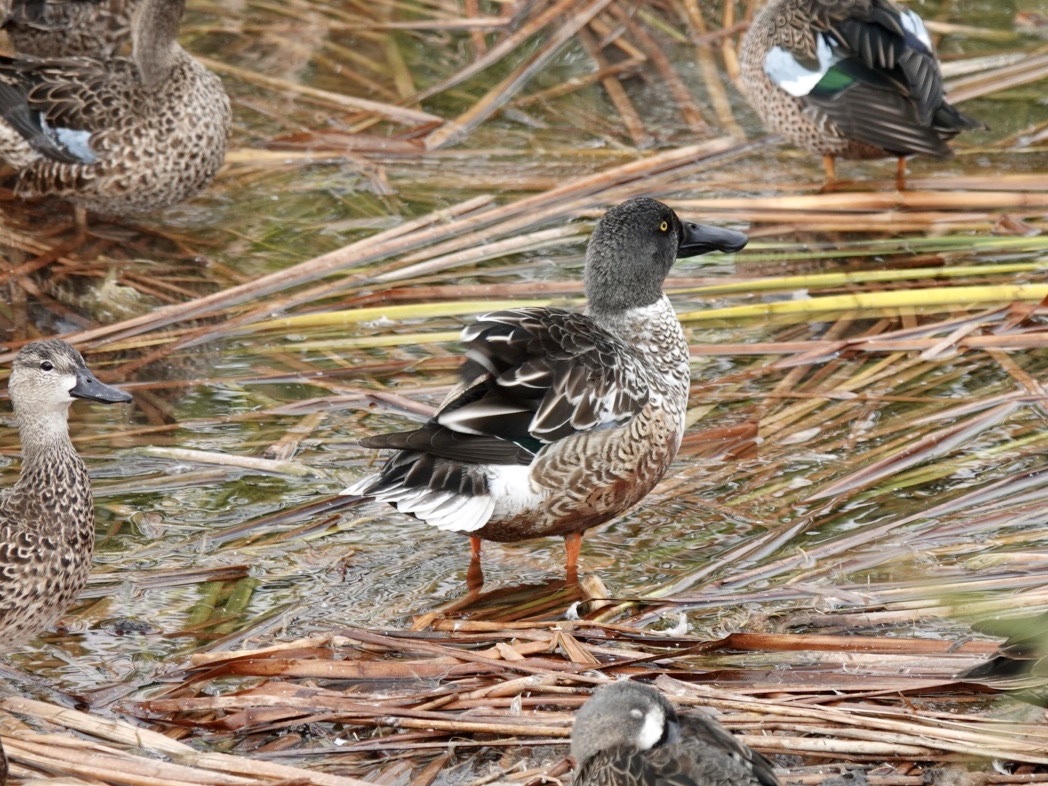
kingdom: Animalia
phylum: Chordata
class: Aves
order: Anseriformes
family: Anatidae
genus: Spatula
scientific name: Spatula clypeata
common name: Northern shoveler
